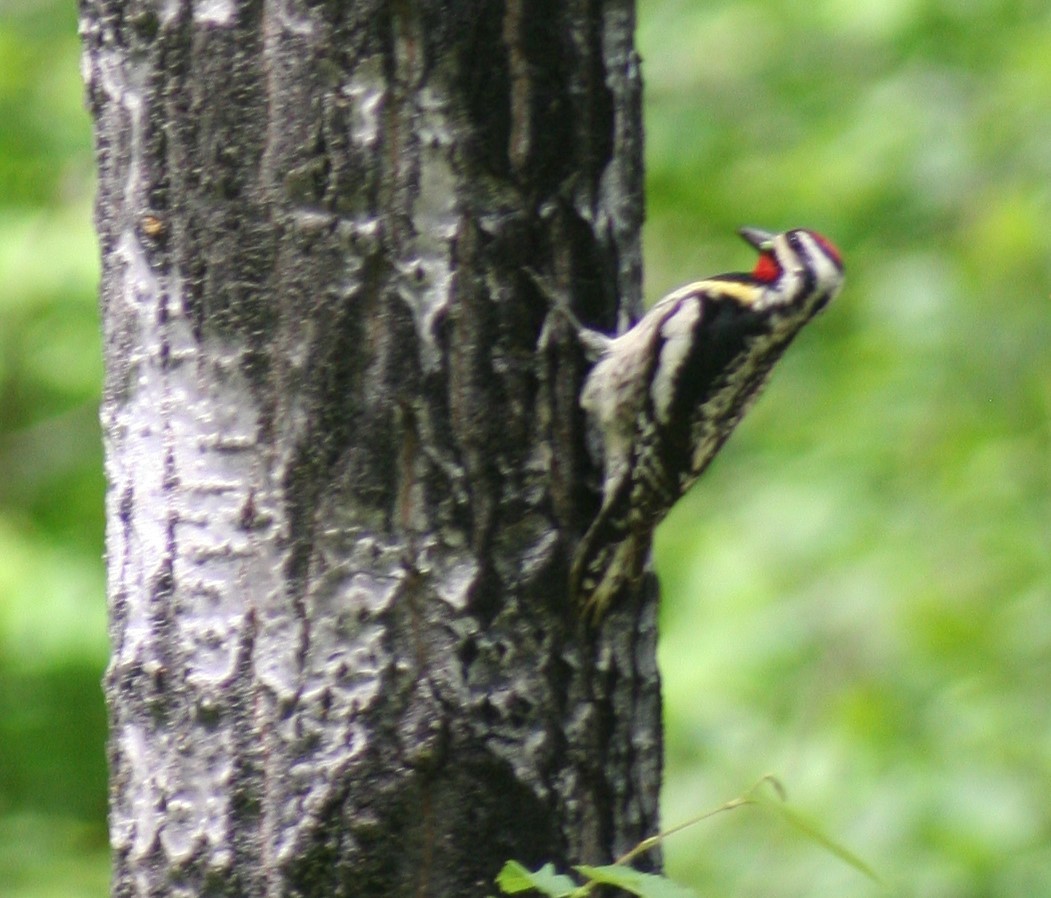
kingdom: Animalia
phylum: Chordata
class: Aves
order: Piciformes
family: Picidae
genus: Sphyrapicus
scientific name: Sphyrapicus varius
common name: Yellow-bellied sapsucker
